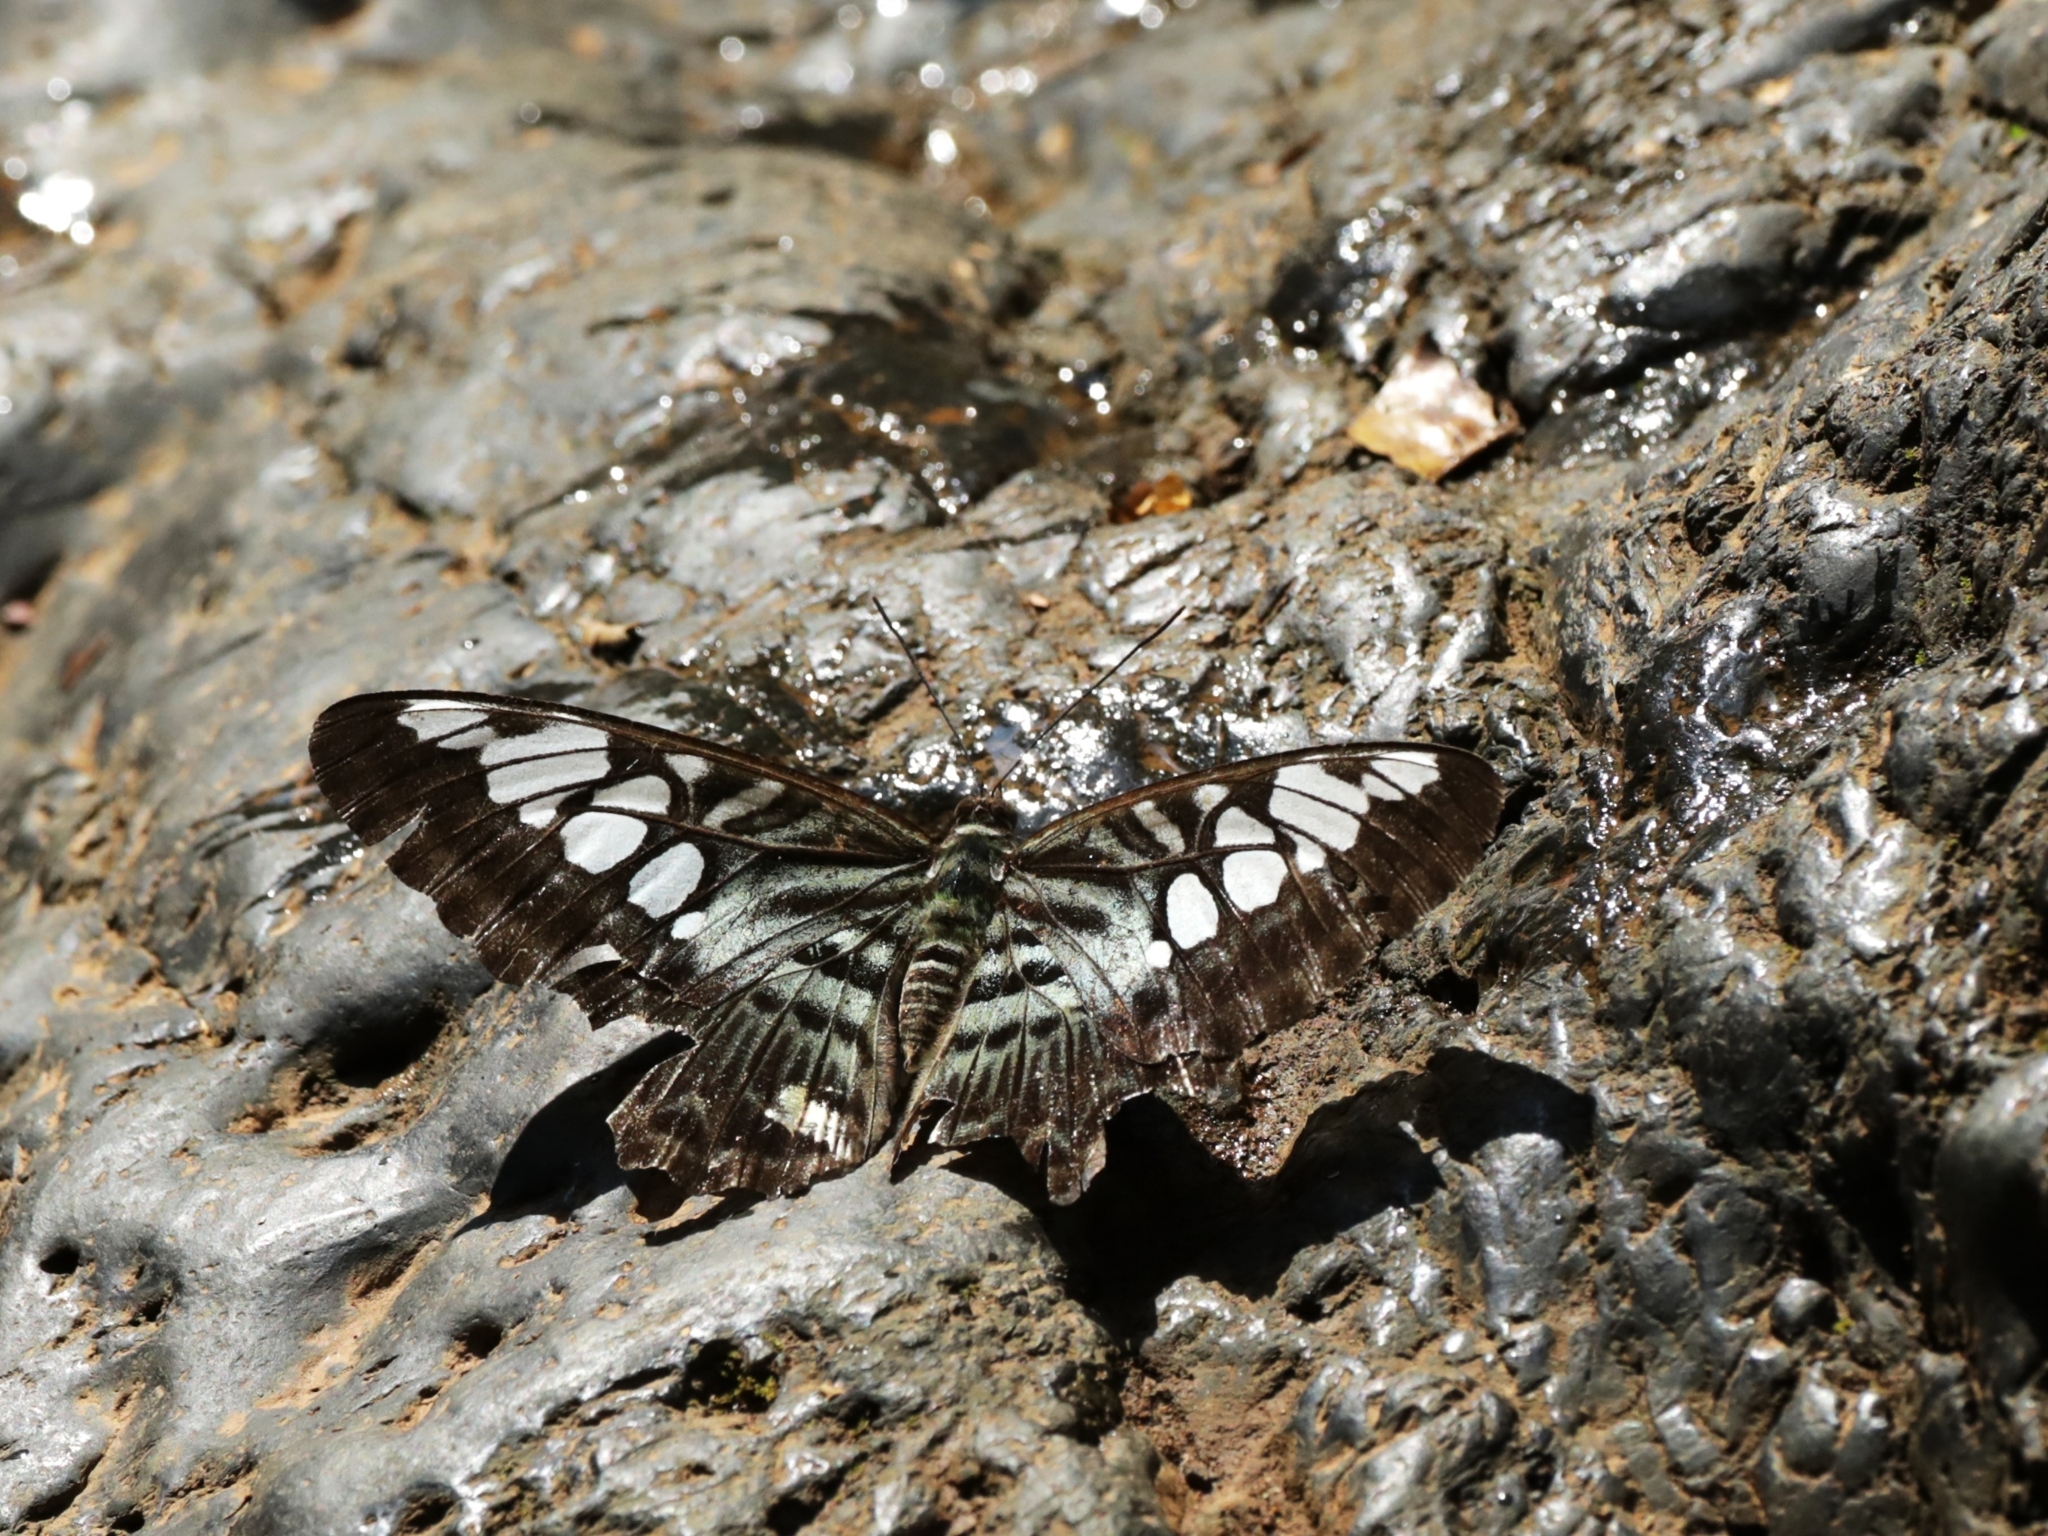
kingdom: Animalia
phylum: Arthropoda
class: Insecta
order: Lepidoptera
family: Nymphalidae
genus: Kallima
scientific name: Kallima sylvia
